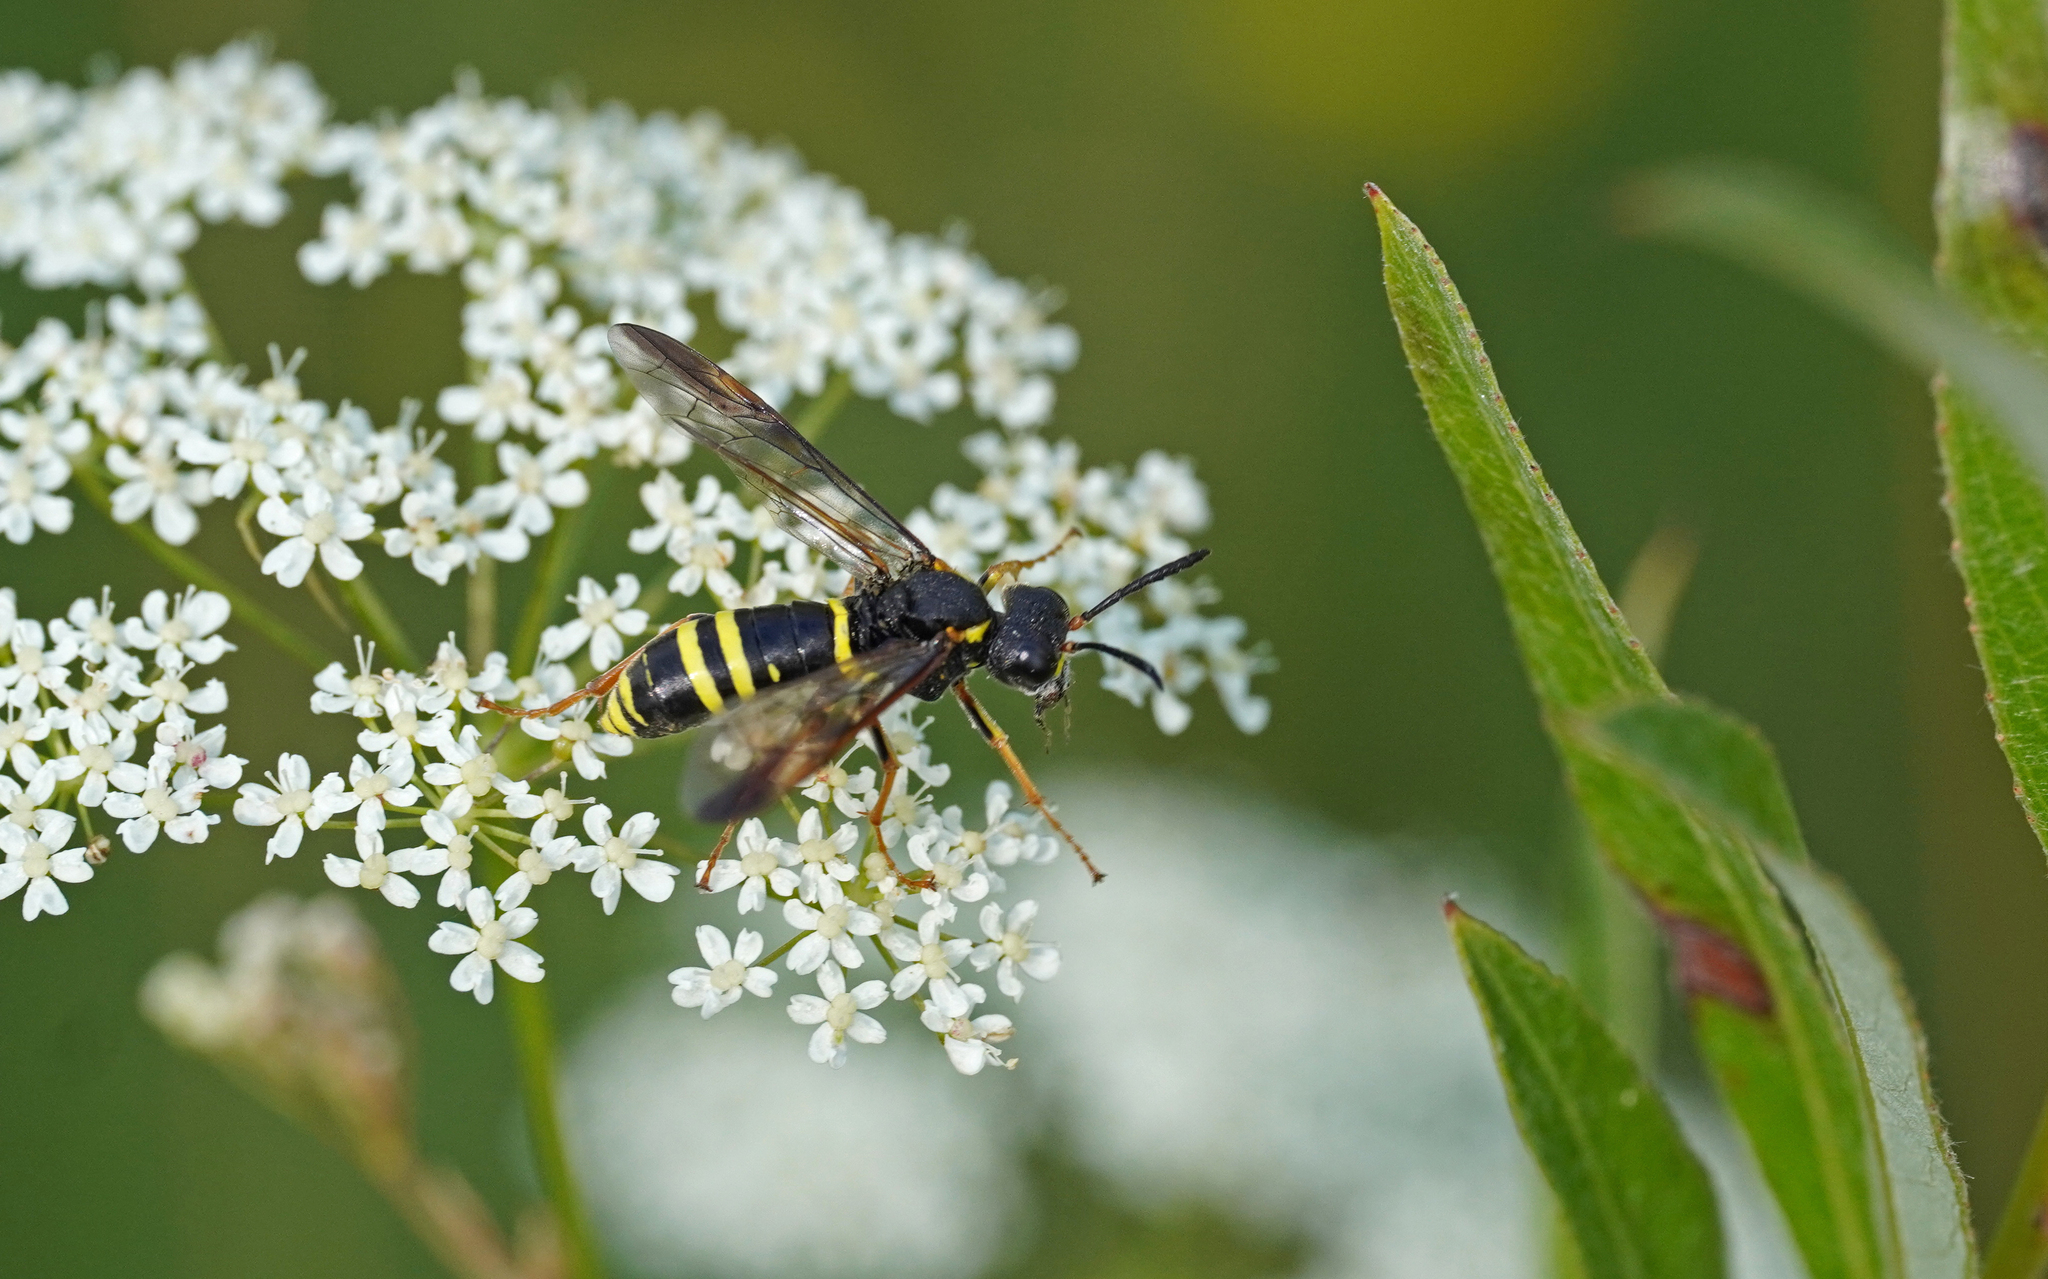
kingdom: Animalia
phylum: Arthropoda
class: Insecta
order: Hymenoptera
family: Tenthredinidae
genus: Tenthredo
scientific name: Tenthredo vespa
